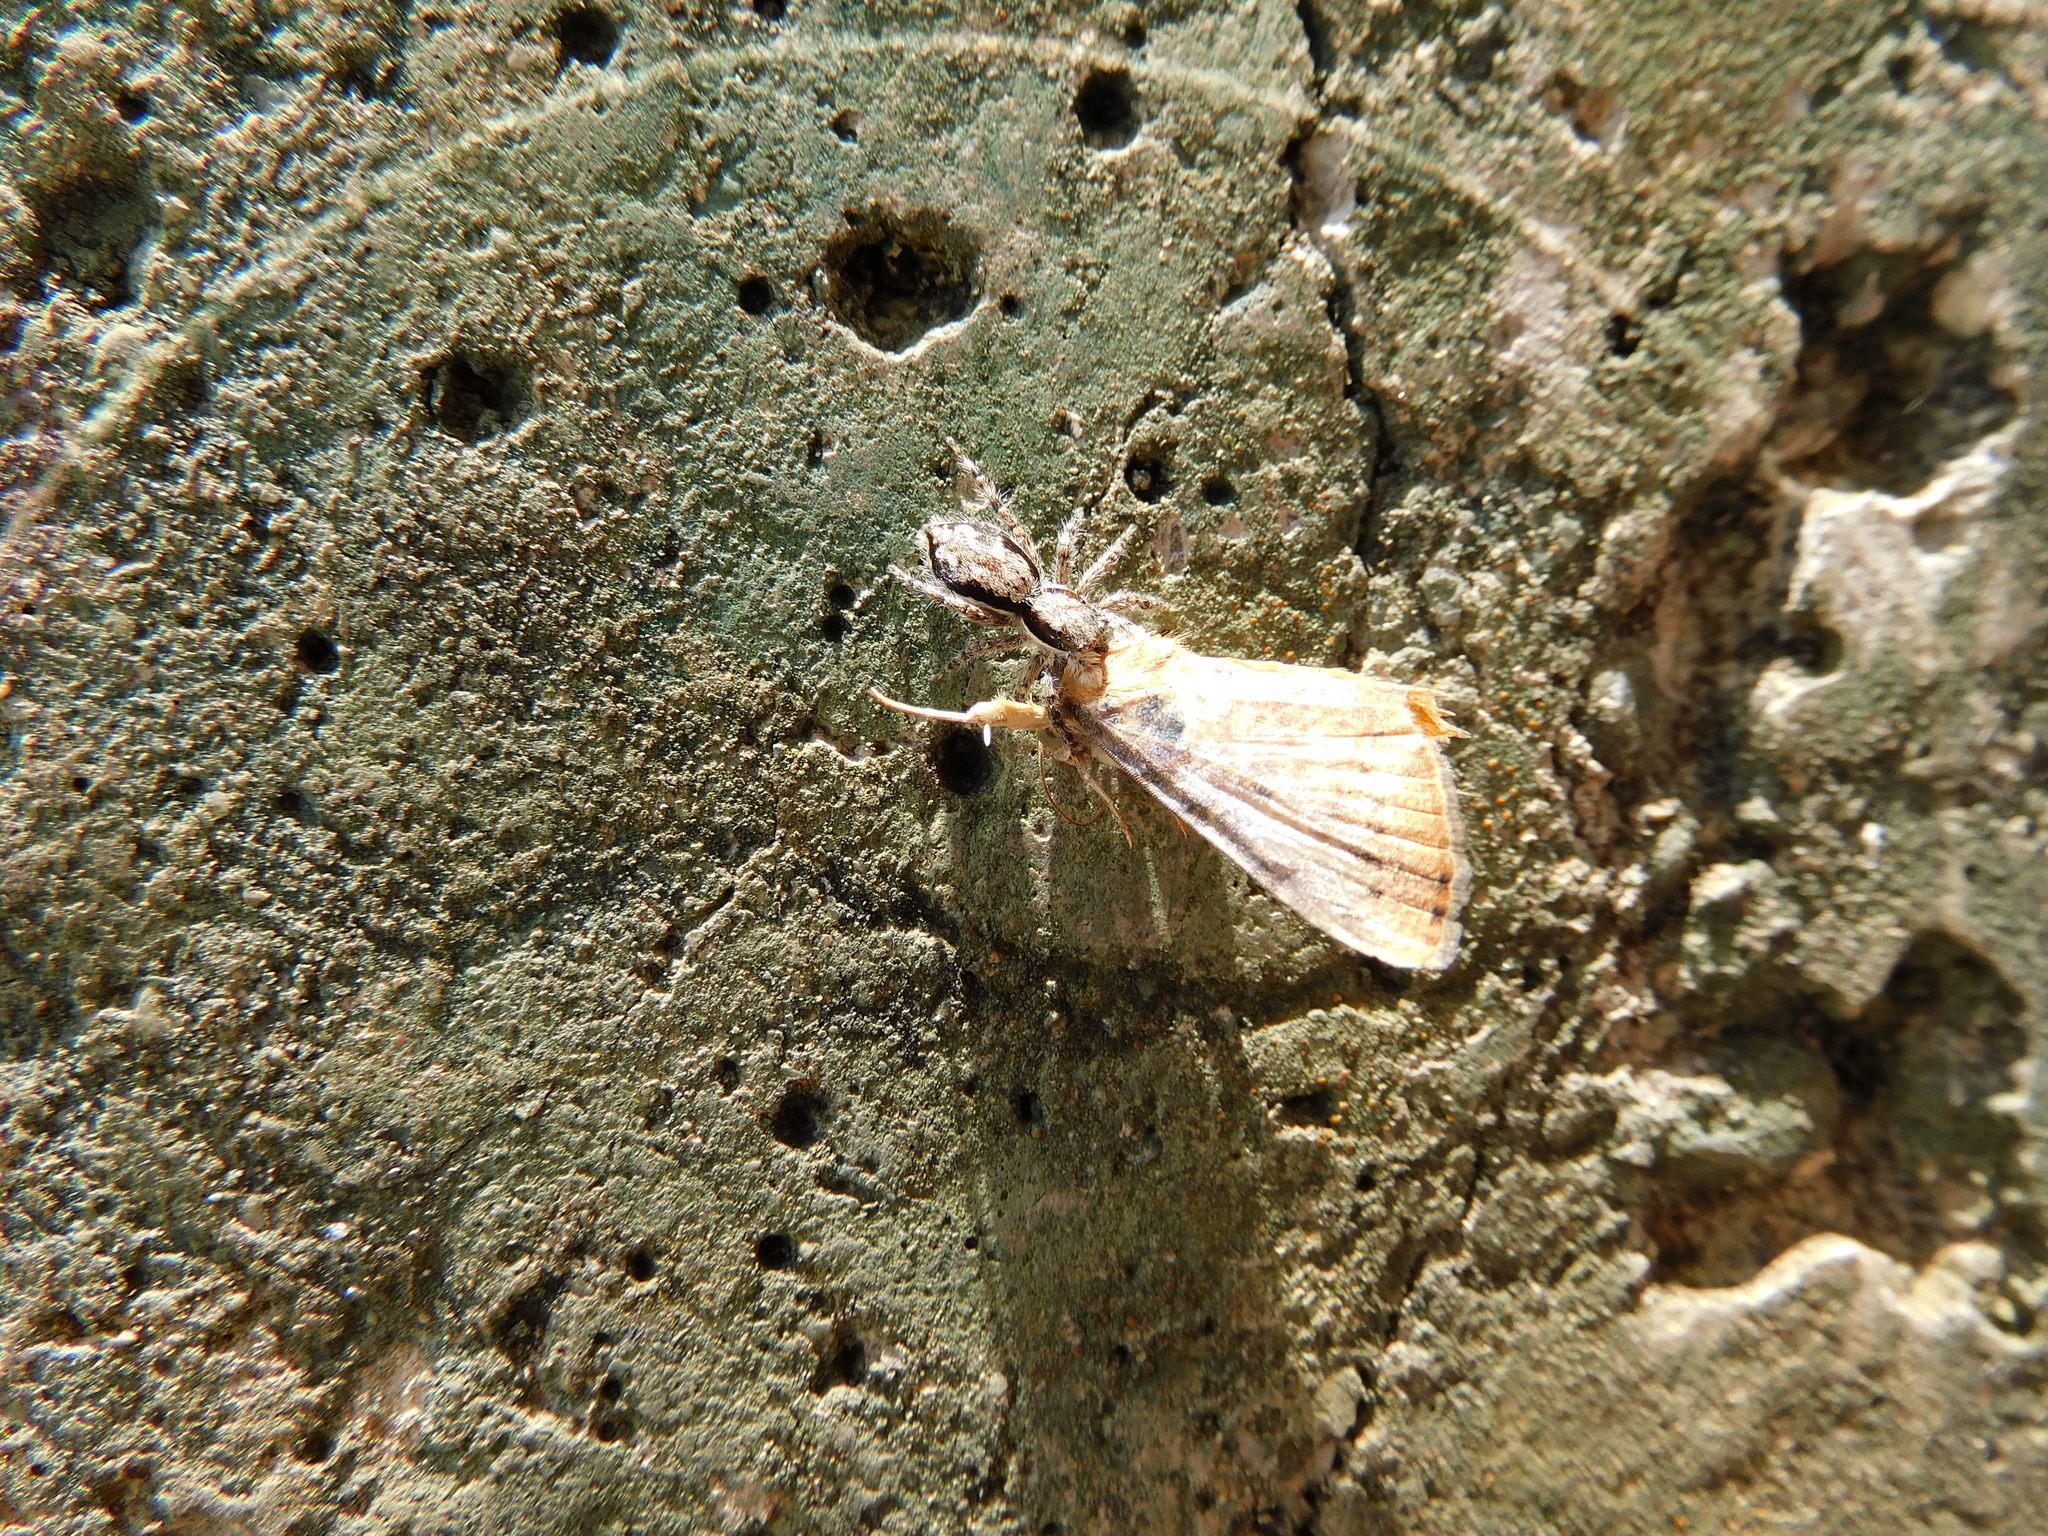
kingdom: Animalia
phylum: Arthropoda
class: Arachnida
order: Araneae
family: Salticidae
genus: Menemerus
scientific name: Menemerus bivittatus
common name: Gray wall jumper
